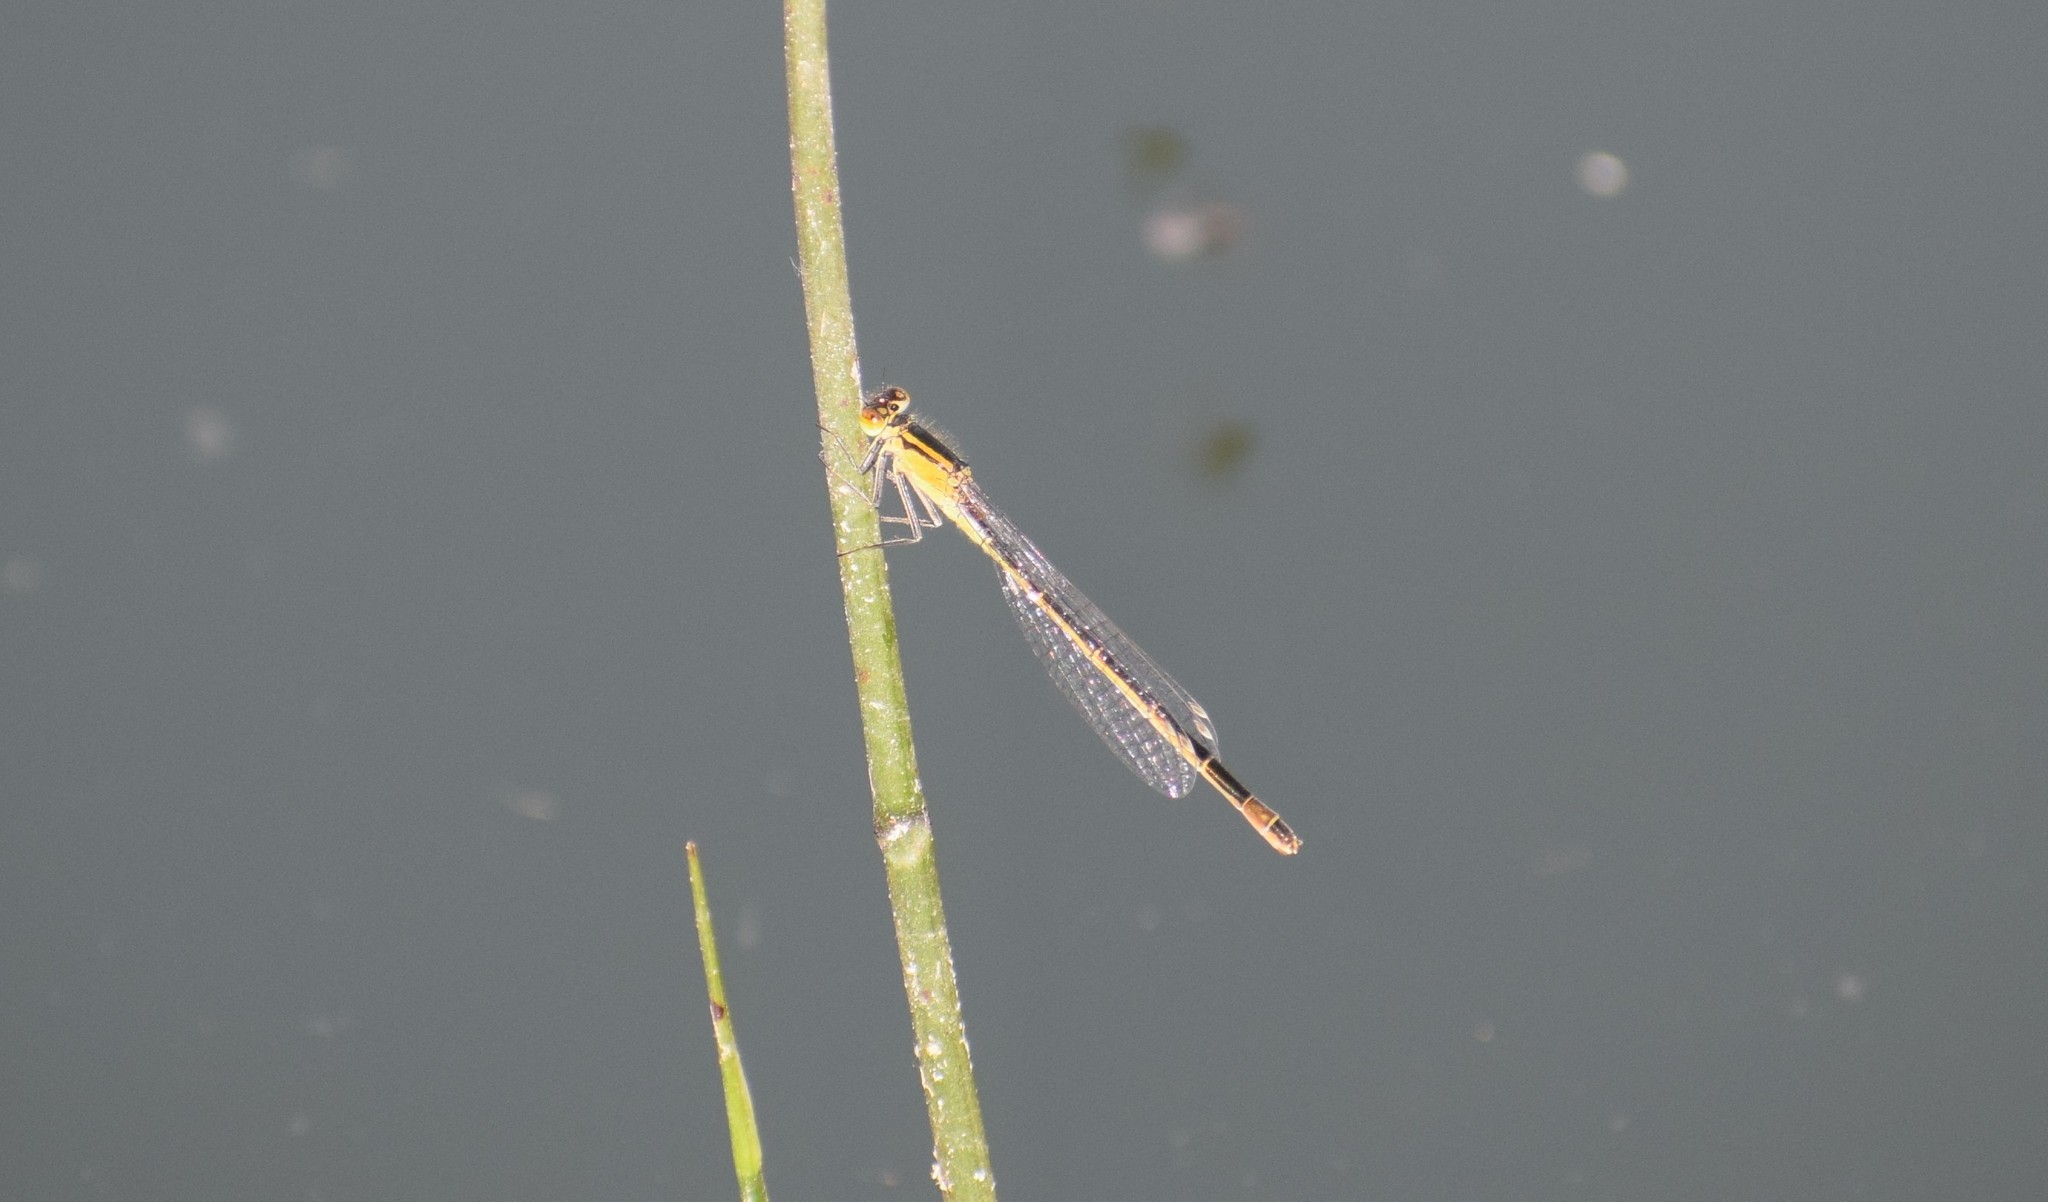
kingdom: Animalia
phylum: Arthropoda
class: Insecta
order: Odonata
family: Coenagrionidae
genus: Ischnura
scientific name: Ischnura elegans
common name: Blue-tailed damselfly
